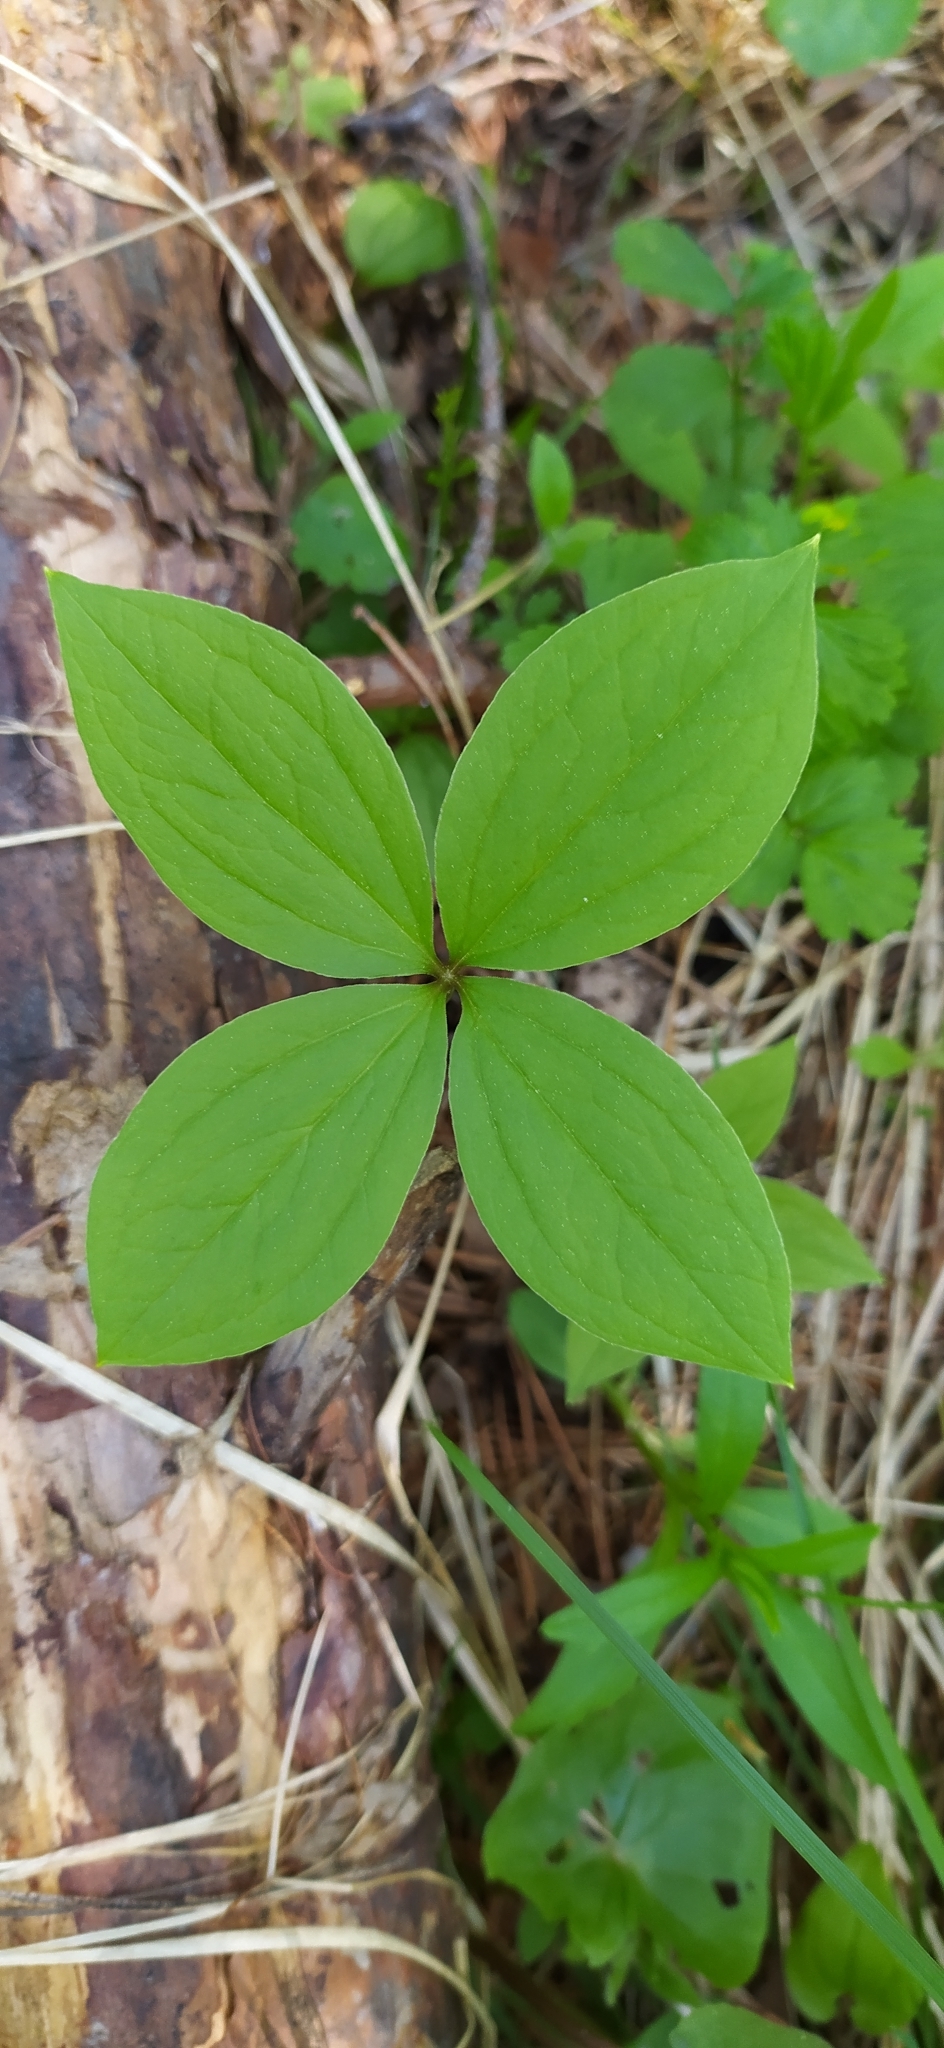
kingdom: Plantae
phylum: Tracheophyta
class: Liliopsida
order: Liliales
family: Melanthiaceae
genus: Paris
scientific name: Paris quadrifolia
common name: Herb-paris
